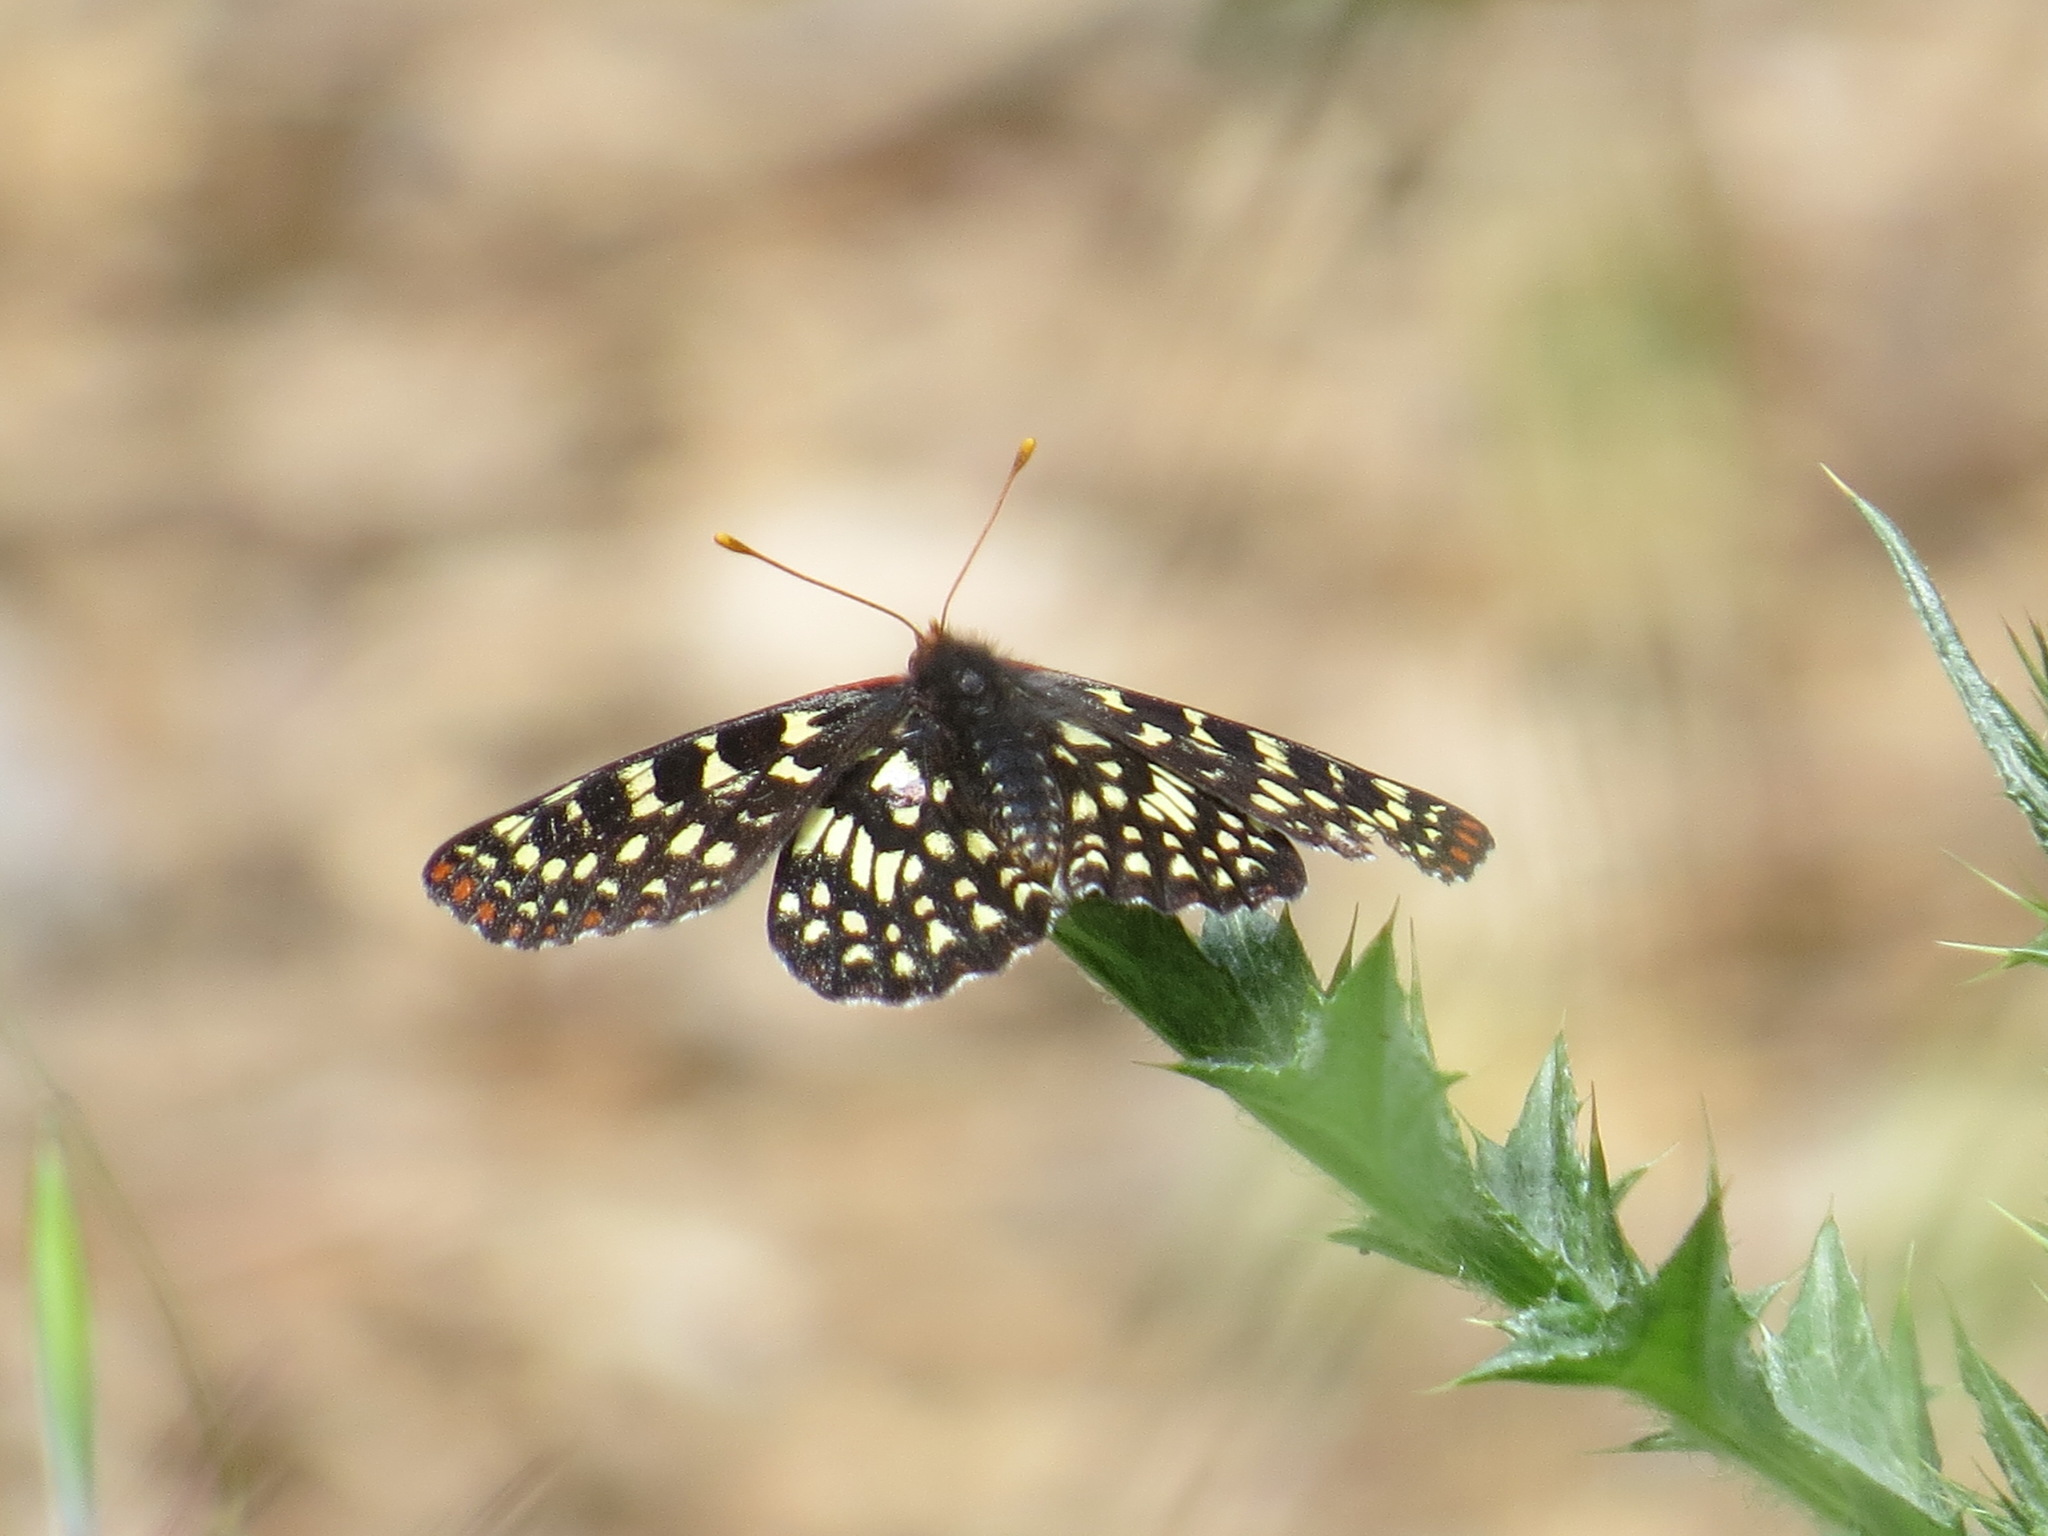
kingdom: Animalia
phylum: Arthropoda
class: Insecta
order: Lepidoptera
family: Nymphalidae
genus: Occidryas
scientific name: Occidryas chalcedona
